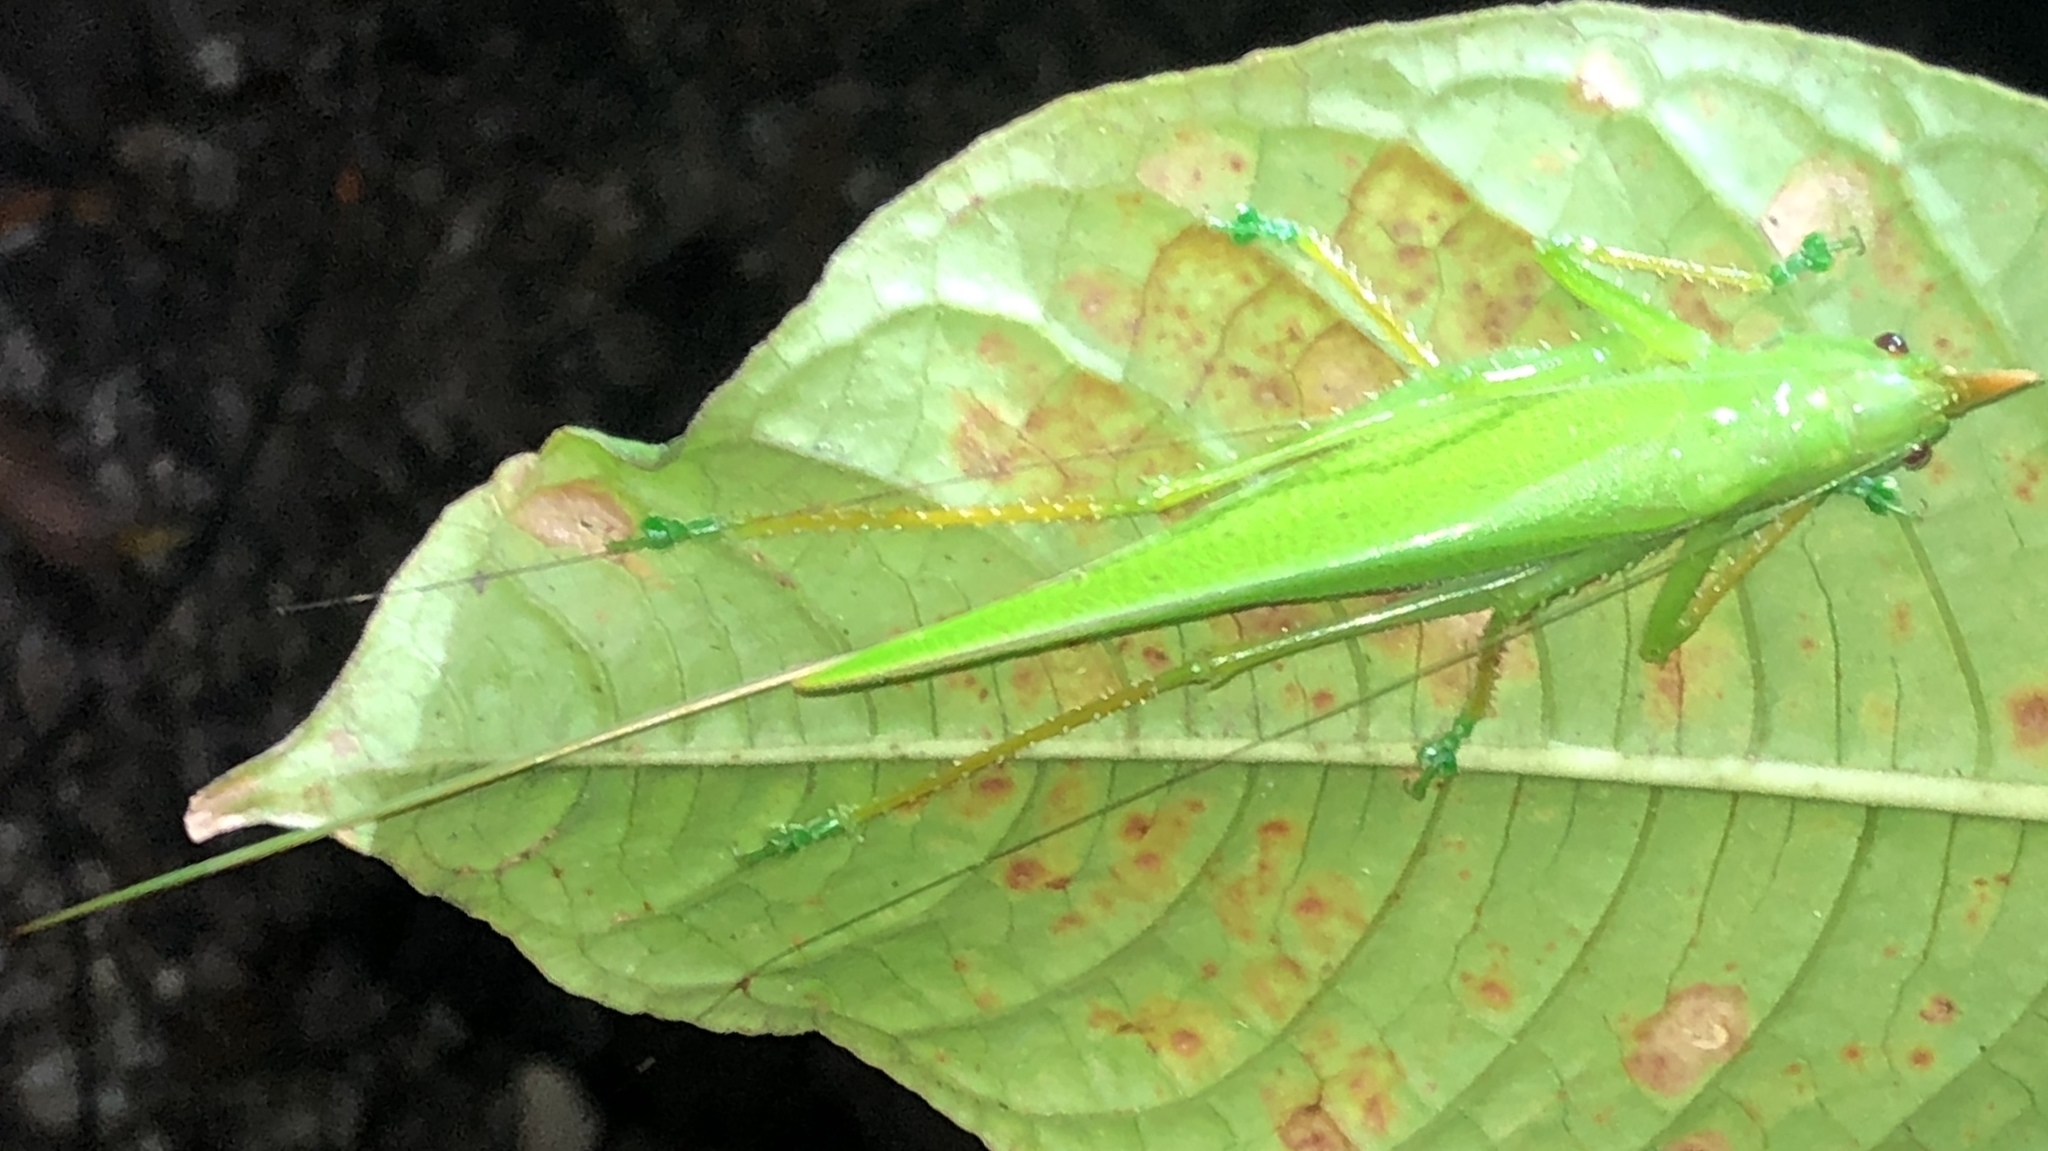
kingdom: Animalia
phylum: Arthropoda
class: Insecta
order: Orthoptera
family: Tettigoniidae
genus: Copiphora
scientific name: Copiphora cultricornis
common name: Yellow-faced spear bearer
